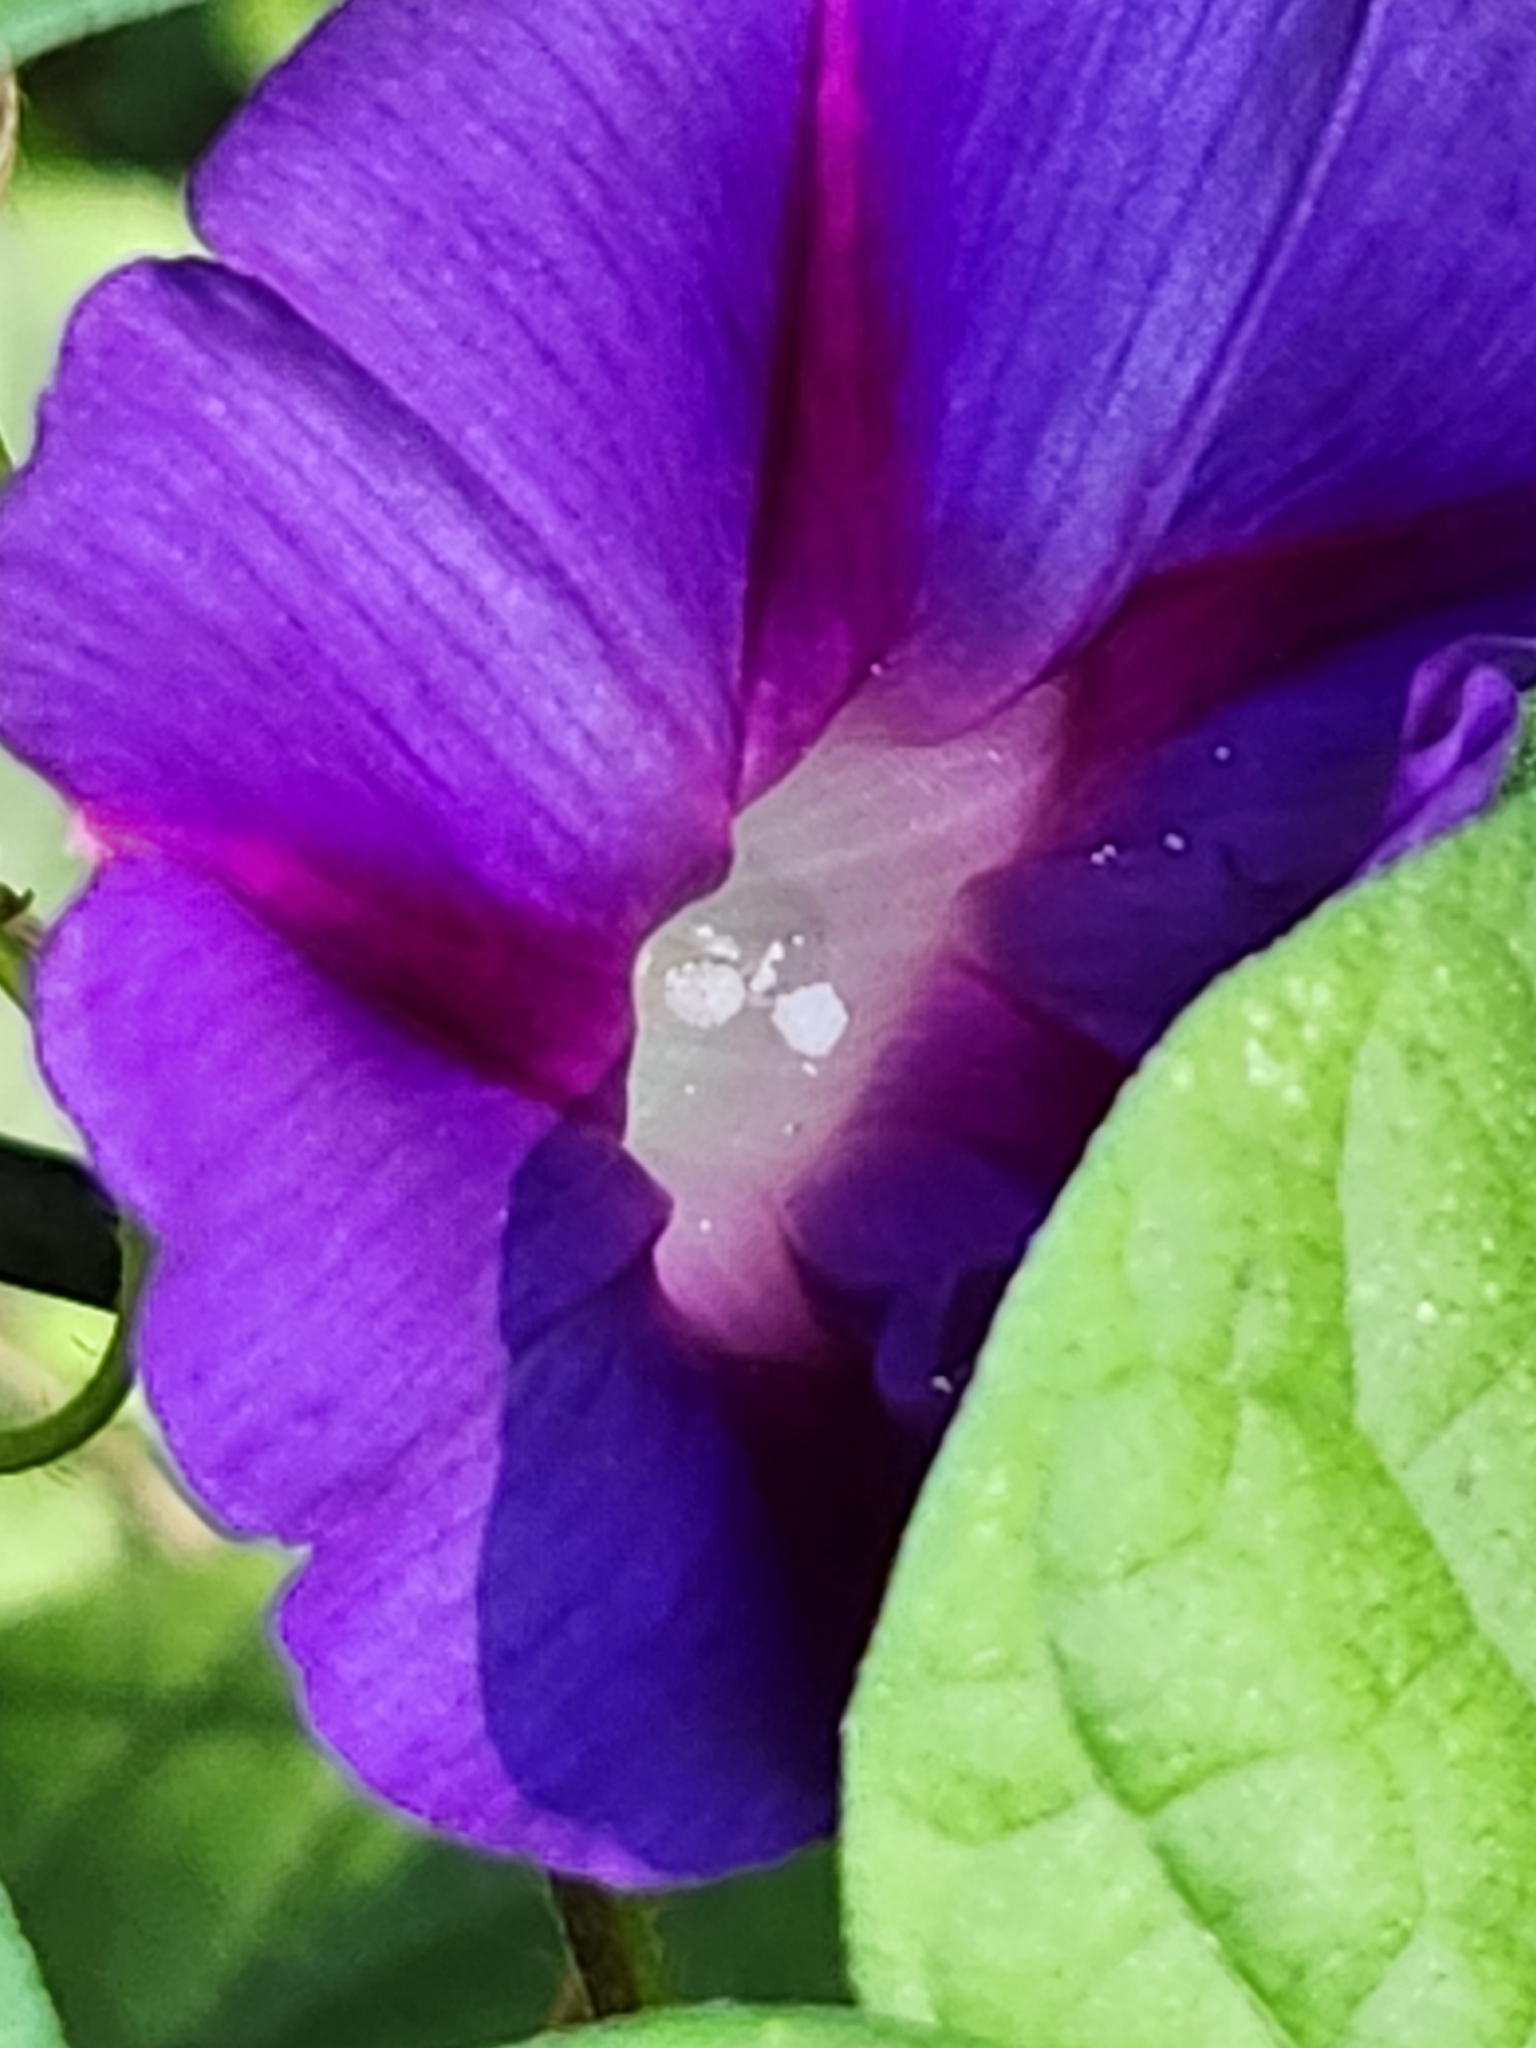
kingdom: Plantae
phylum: Tracheophyta
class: Magnoliopsida
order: Solanales
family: Convolvulaceae
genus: Ipomoea
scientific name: Ipomoea purpurea
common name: Common morning-glory
